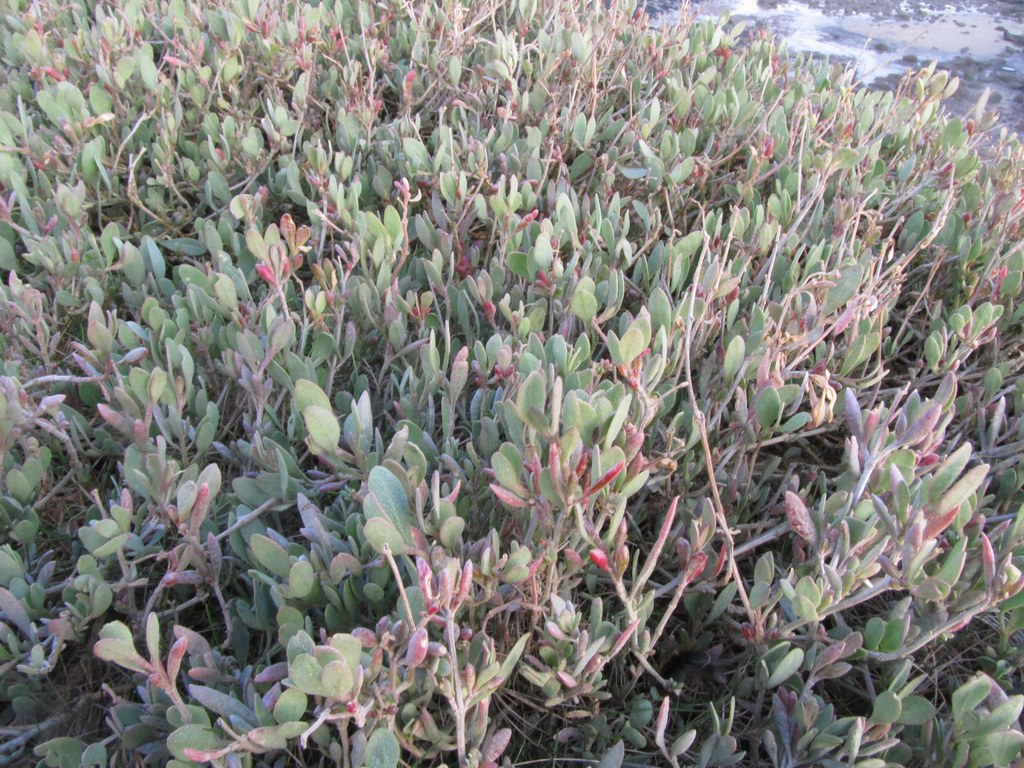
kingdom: Plantae
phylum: Tracheophyta
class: Magnoliopsida
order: Caryophyllales
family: Amaranthaceae
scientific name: Amaranthaceae
